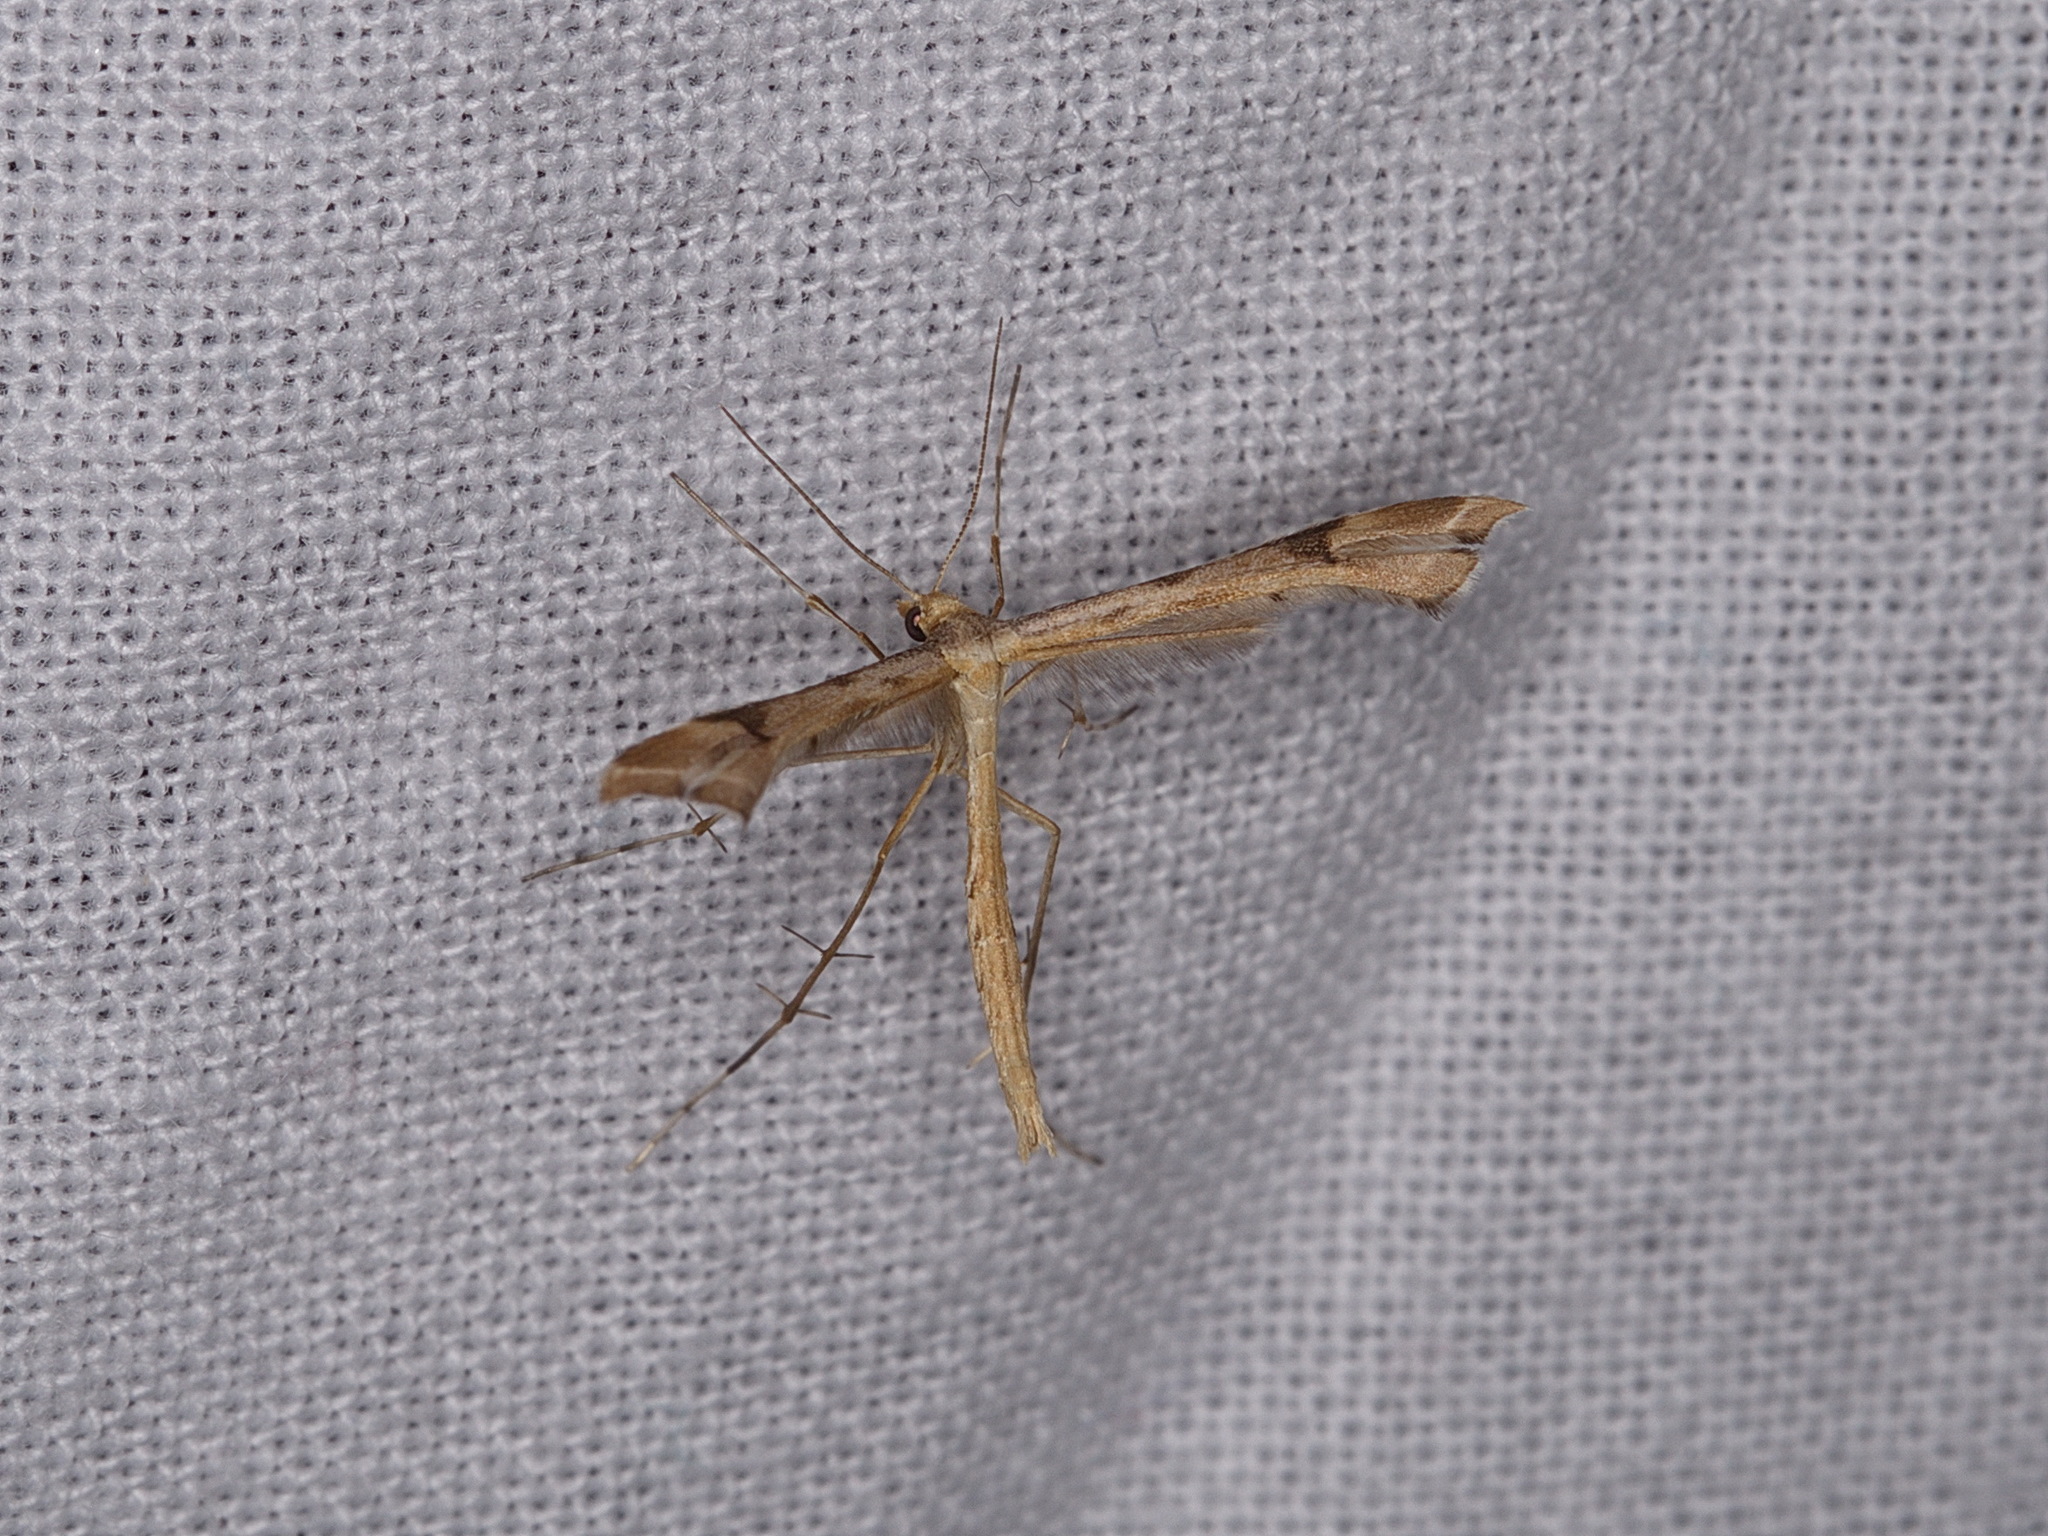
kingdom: Animalia
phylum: Arthropoda
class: Insecta
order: Lepidoptera
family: Pterophoridae
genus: Sinpunctiptilia
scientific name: Sinpunctiptilia emissalis
